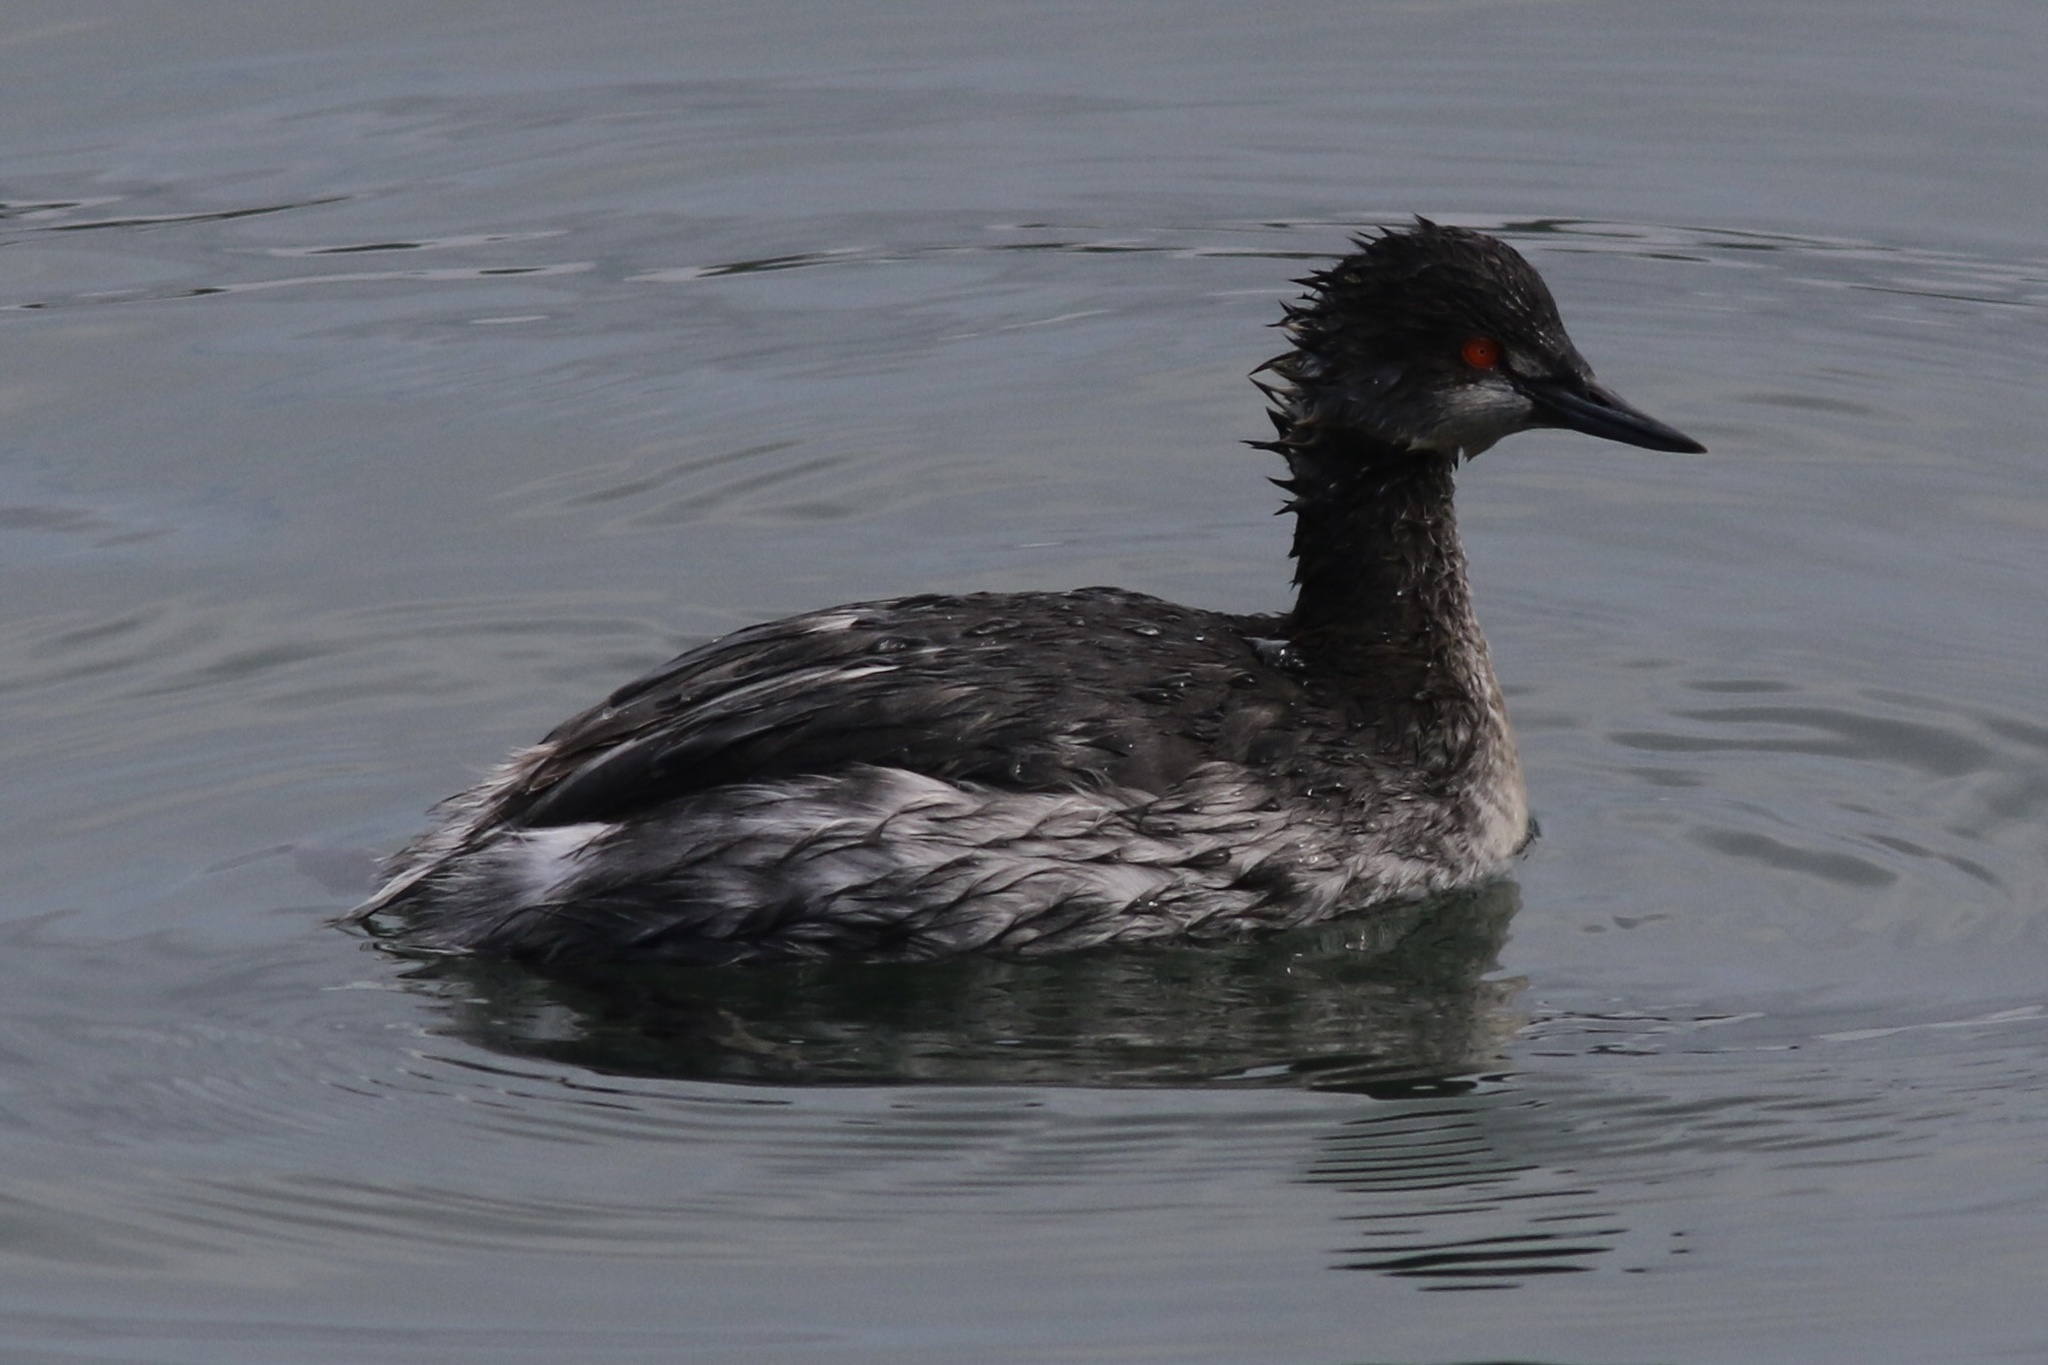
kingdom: Animalia
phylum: Chordata
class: Aves
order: Podicipediformes
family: Podicipedidae
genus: Podiceps
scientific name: Podiceps nigricollis
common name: Black-necked grebe
